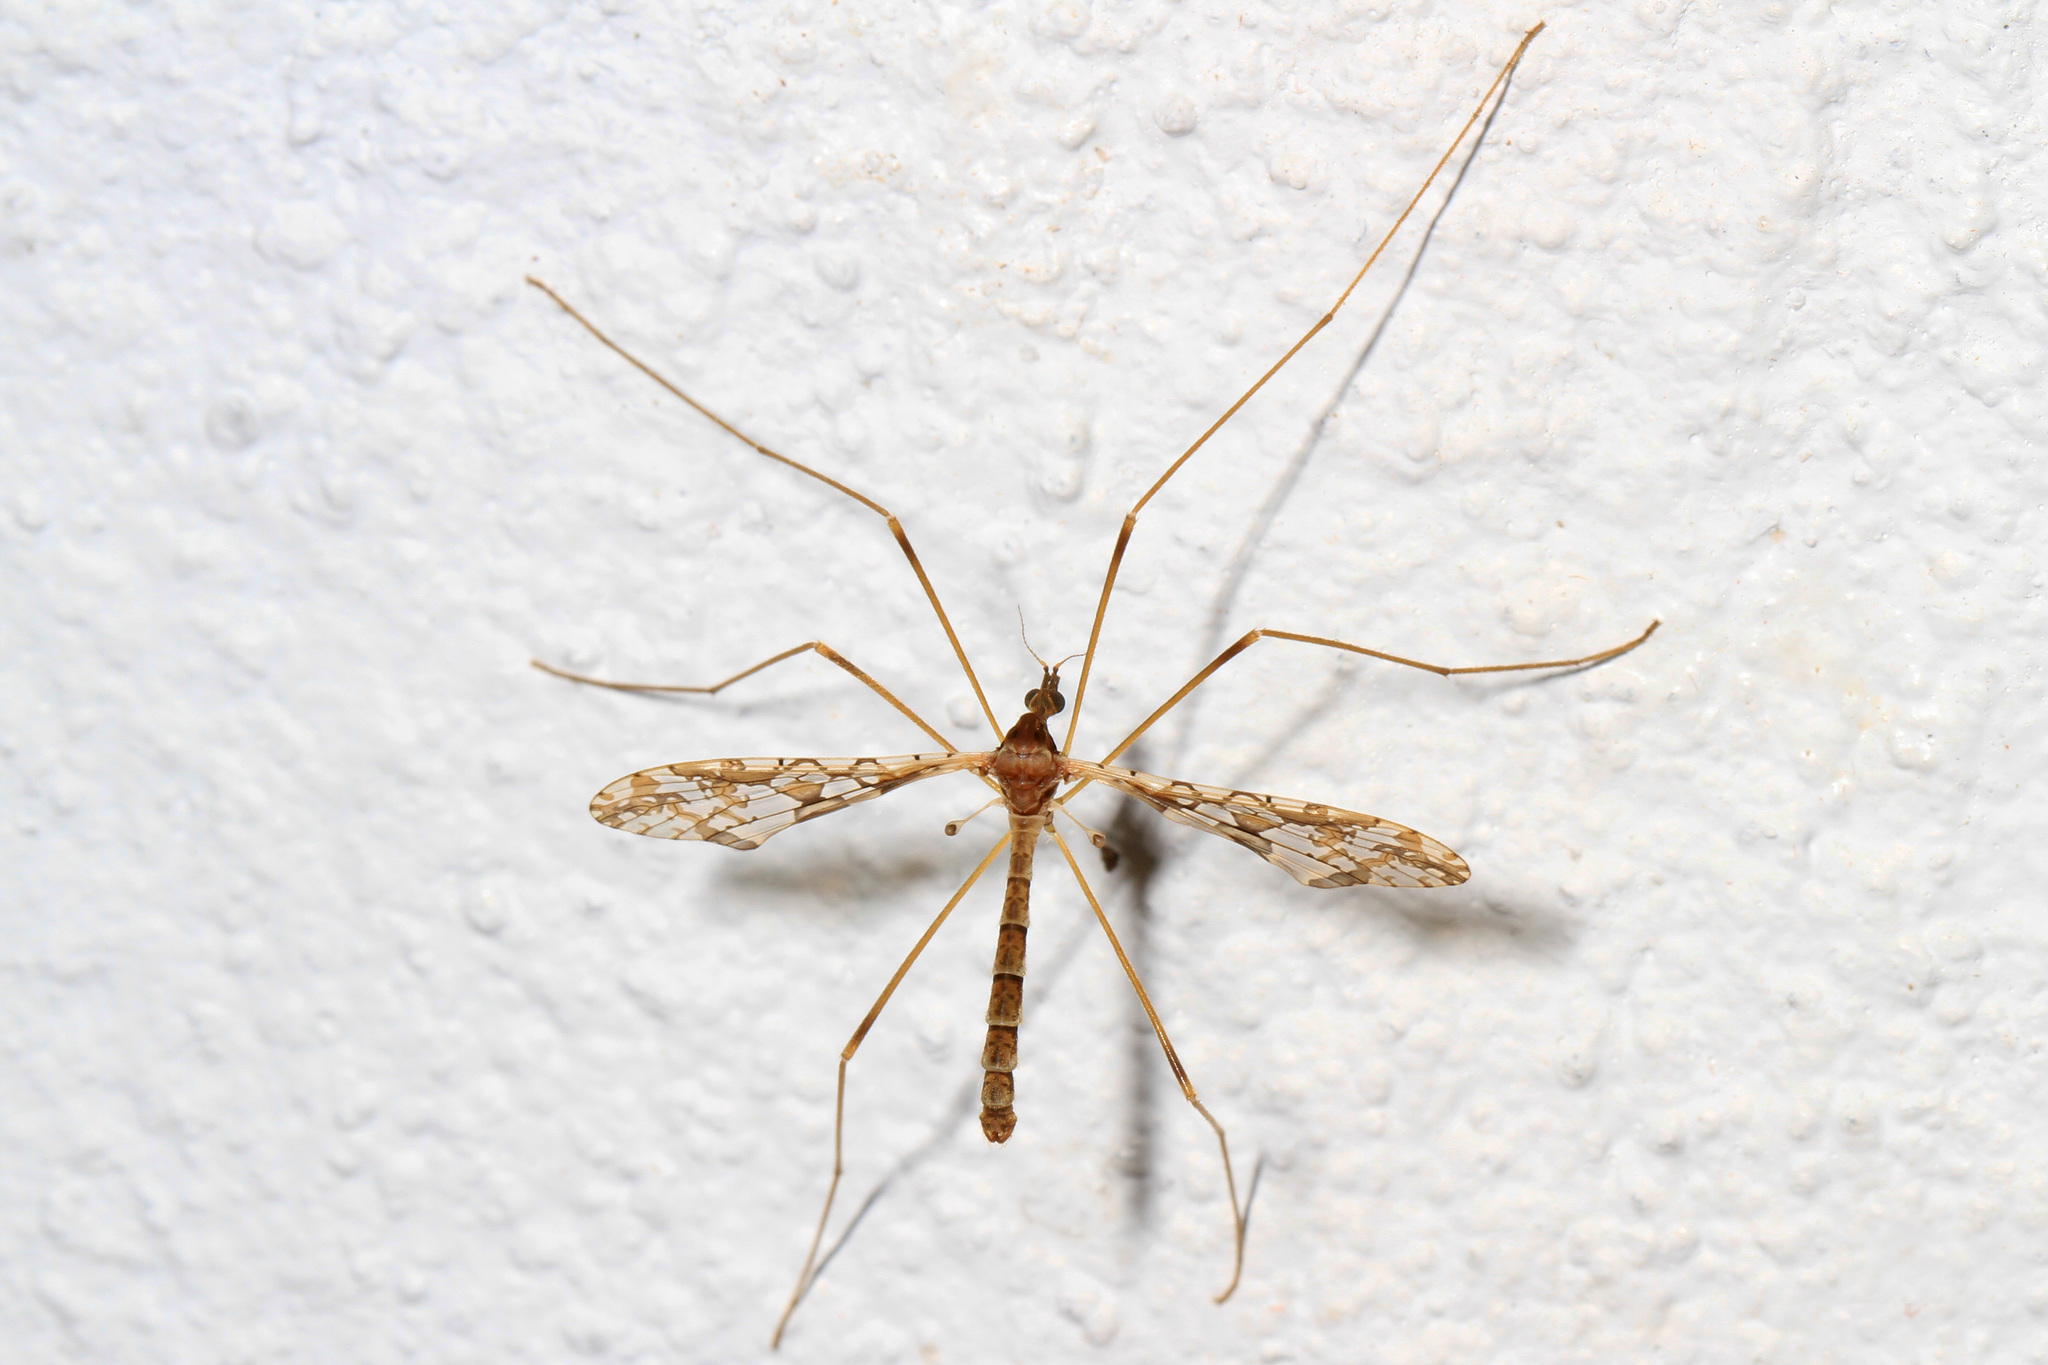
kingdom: Animalia
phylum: Arthropoda
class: Insecta
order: Diptera
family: Limoniidae
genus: Epiphragma
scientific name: Epiphragma solatrix
